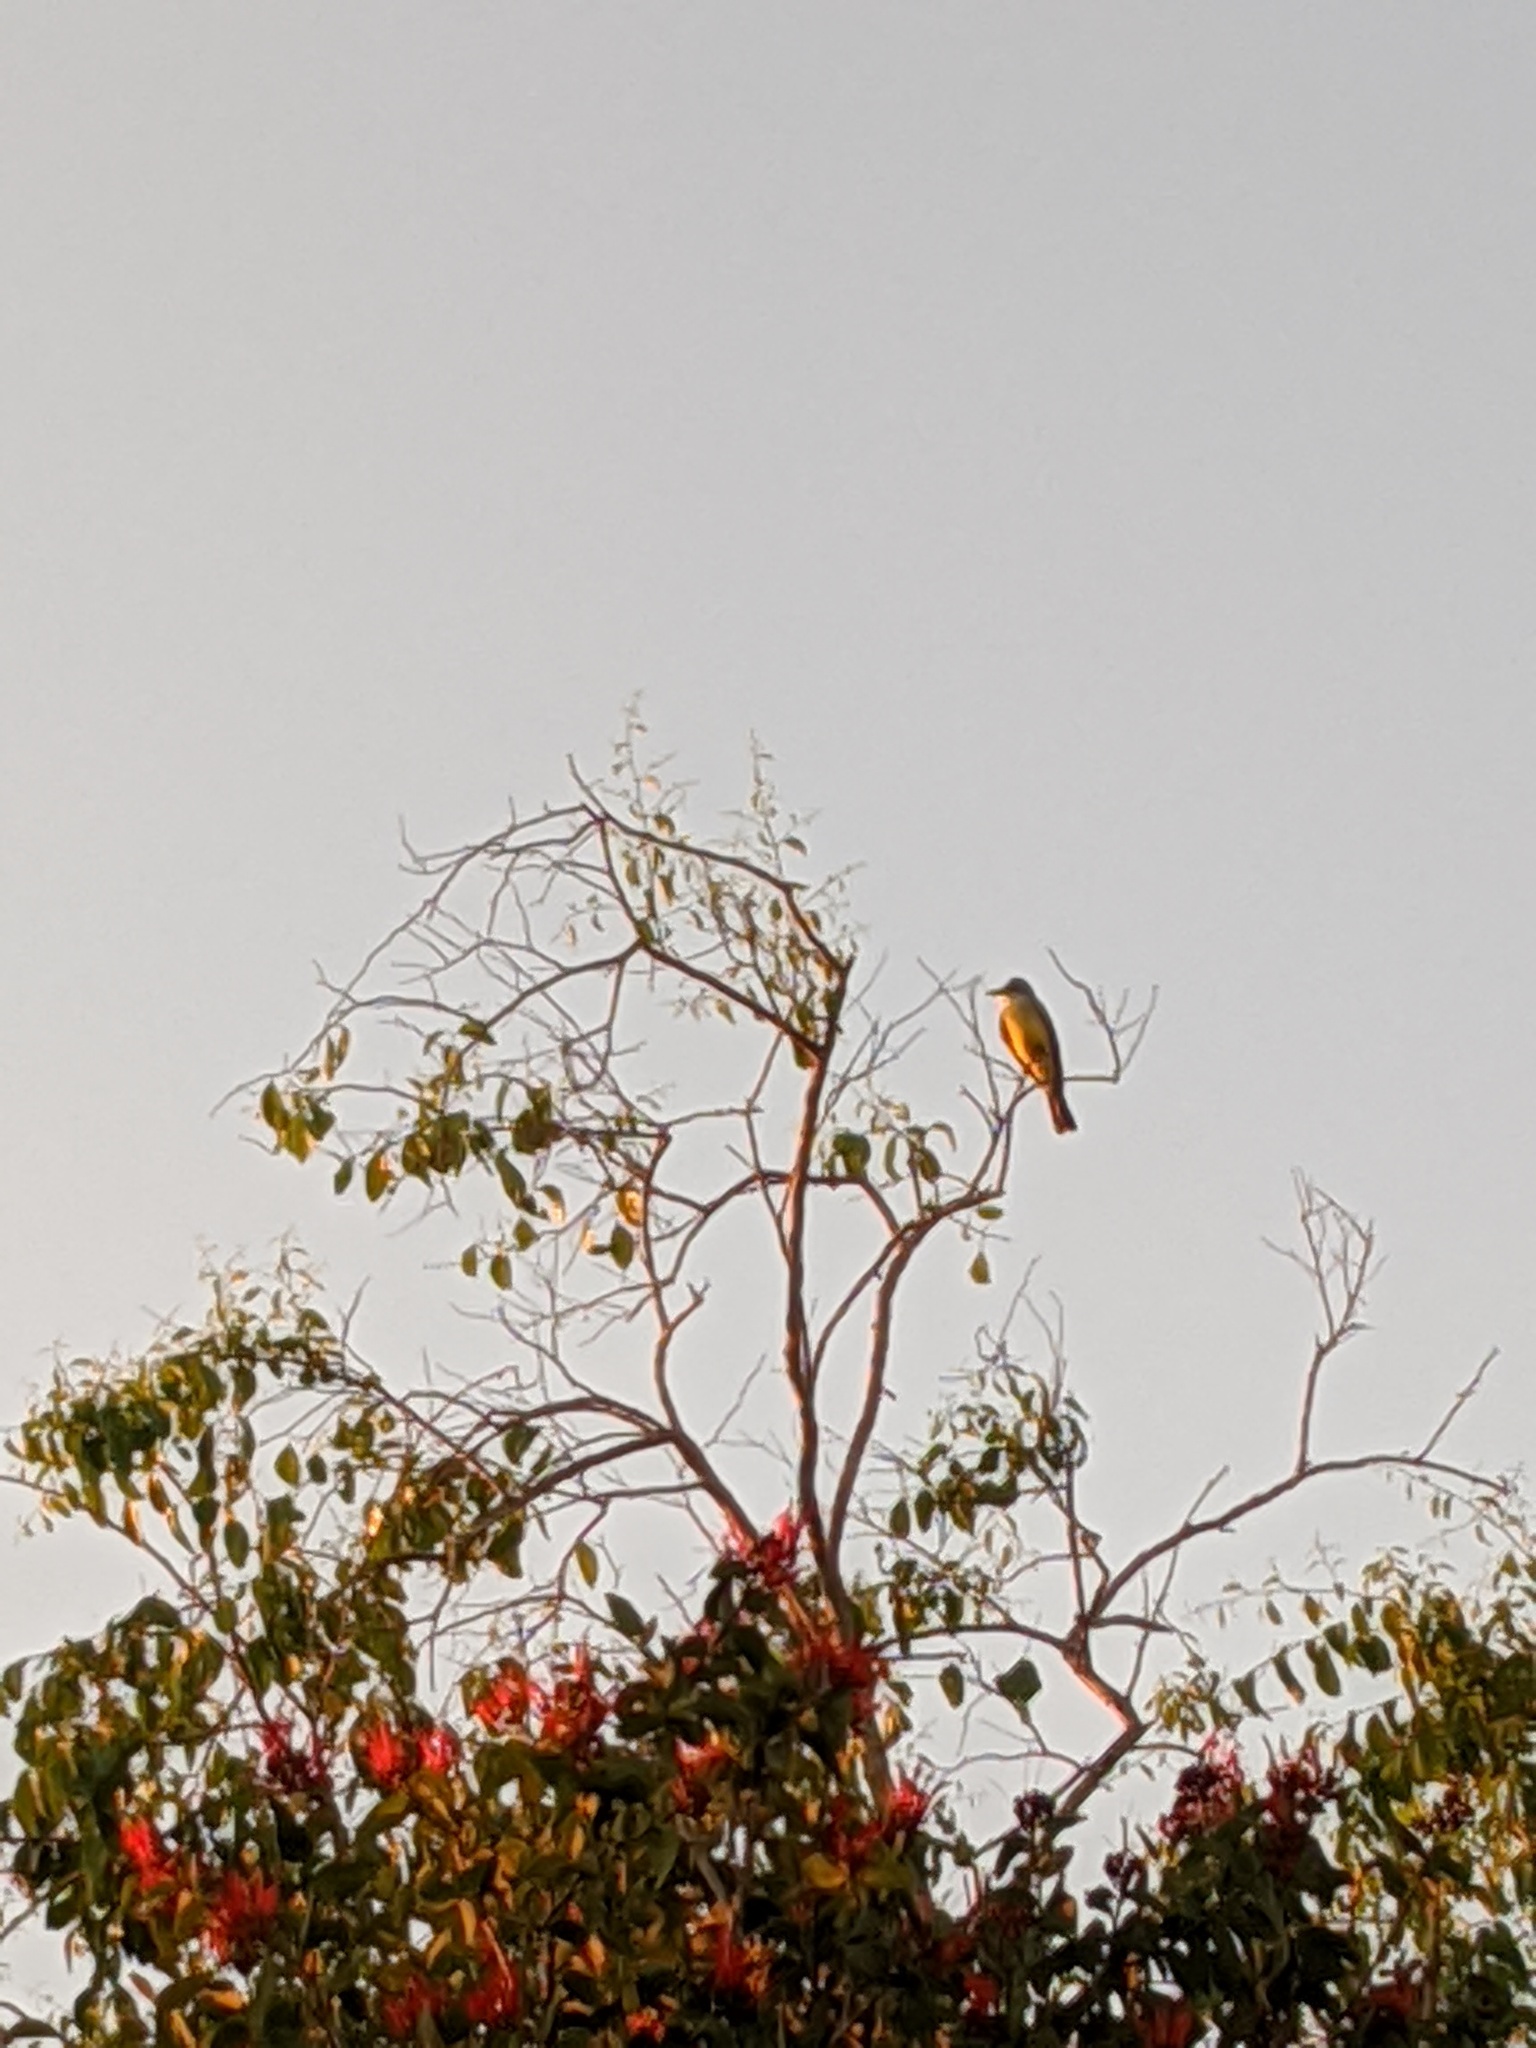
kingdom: Animalia
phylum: Chordata
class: Aves
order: Passeriformes
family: Tyrannidae
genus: Tyrannus
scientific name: Tyrannus melancholicus
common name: Tropical kingbird
